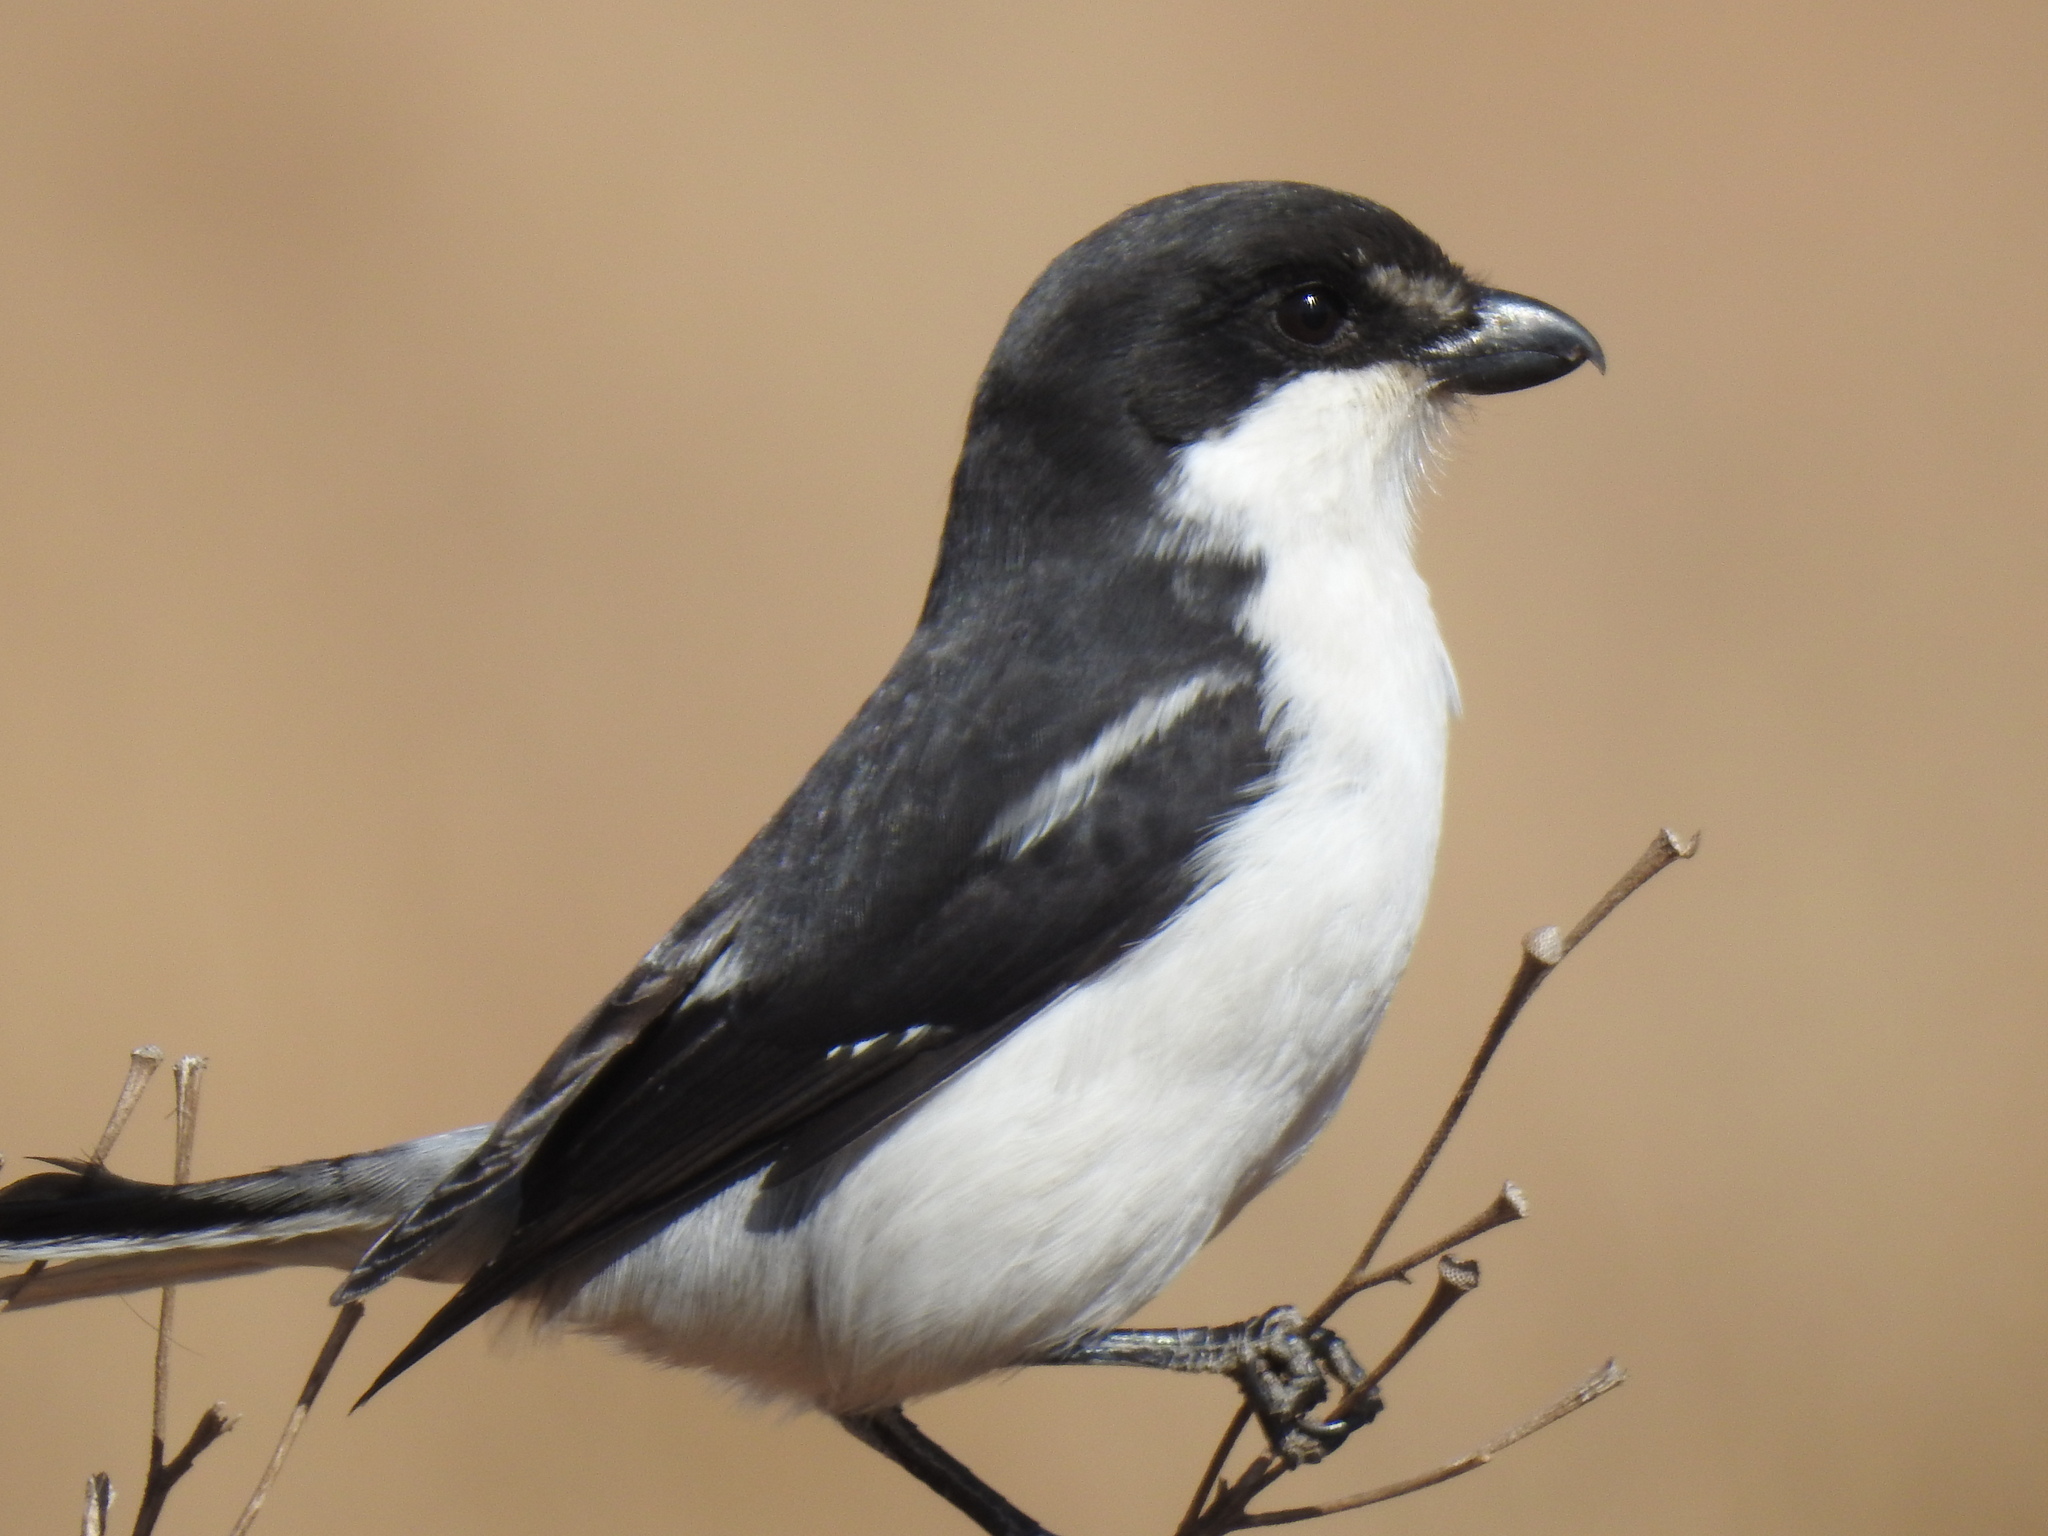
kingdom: Animalia
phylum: Chordata
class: Aves
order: Passeriformes
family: Laniidae
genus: Lanius
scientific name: Lanius collaris
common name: Southern fiscal
